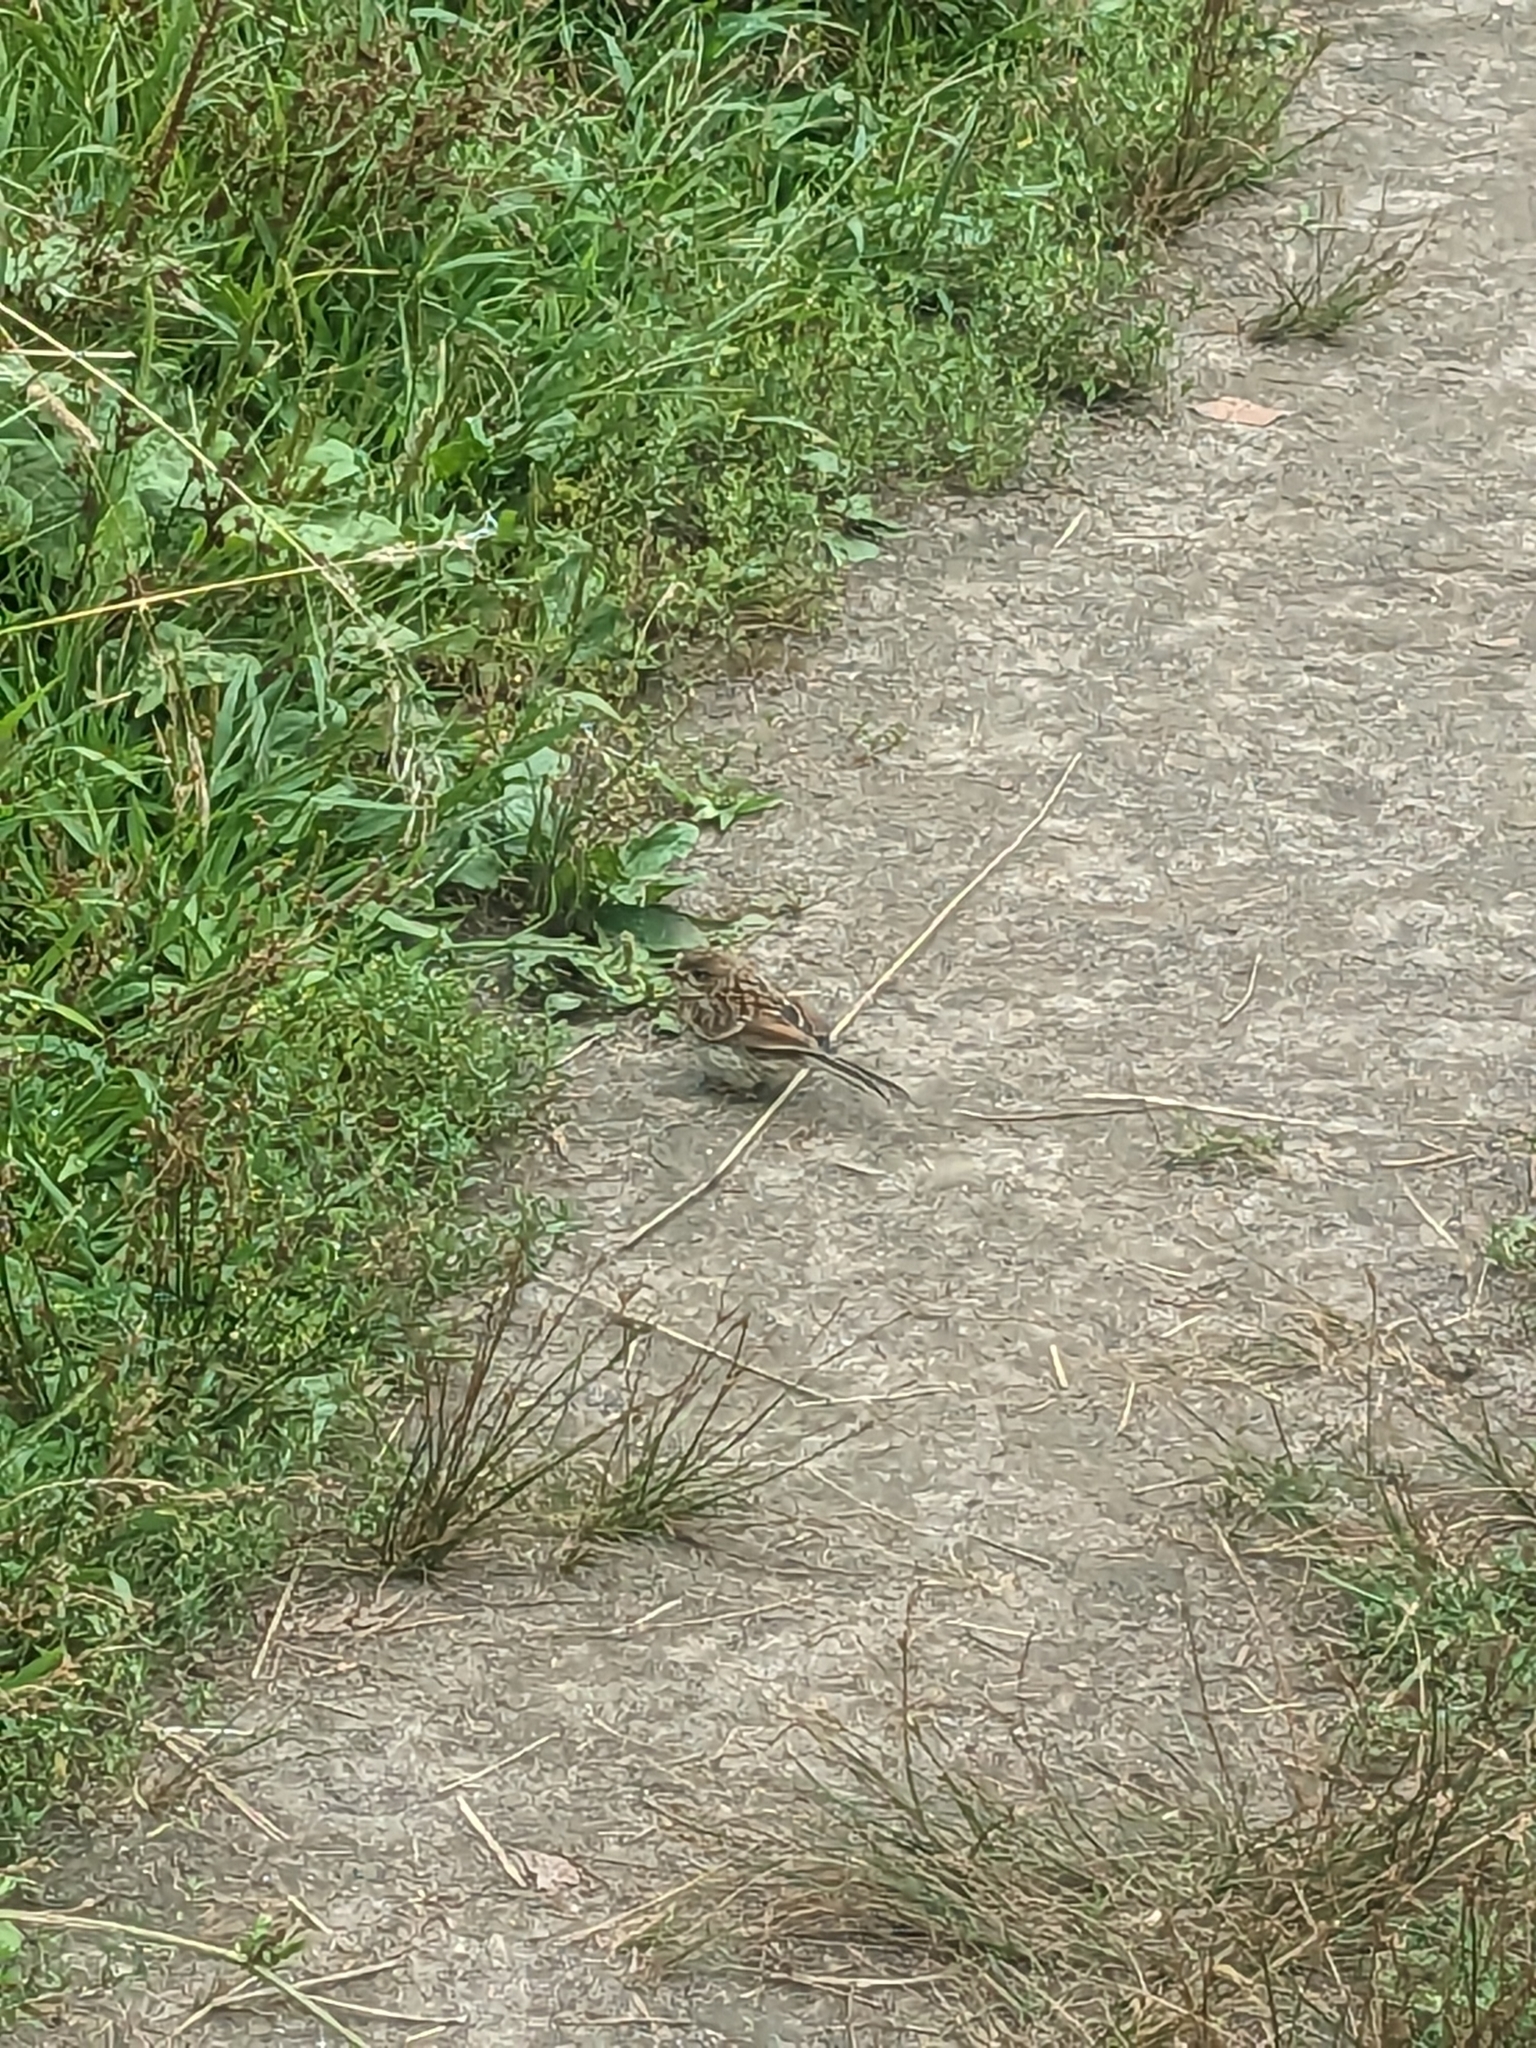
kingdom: Animalia
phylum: Chordata
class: Aves
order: Passeriformes
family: Passeridae
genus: Passer
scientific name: Passer domesticus
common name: House sparrow
